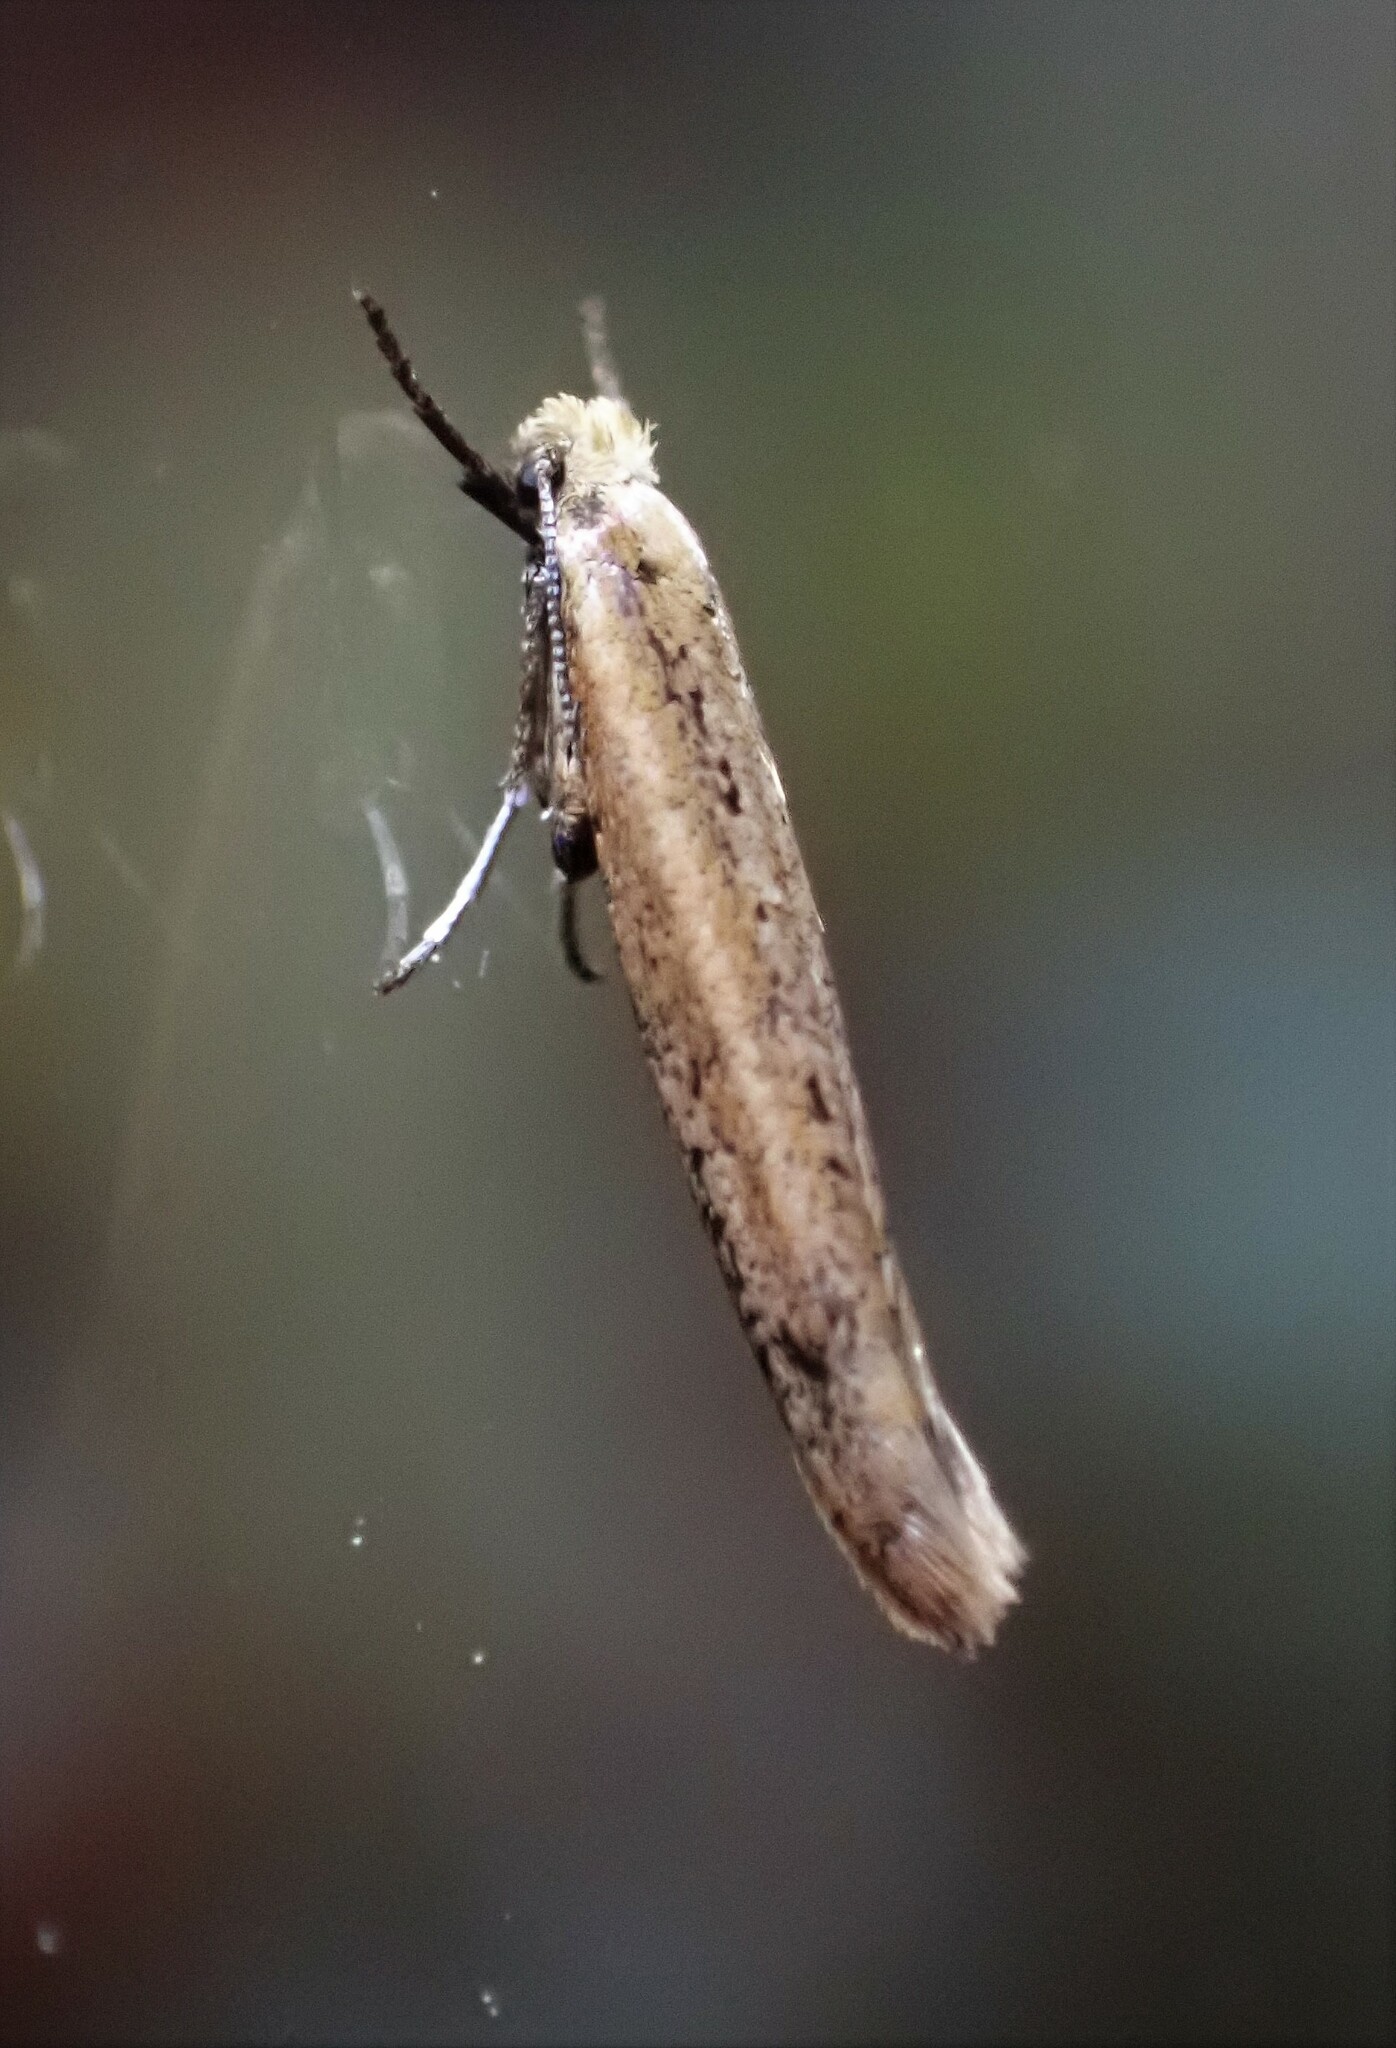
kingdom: Animalia
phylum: Arthropoda
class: Insecta
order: Lepidoptera
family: Yponomeutidae
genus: Euhyponomeutoides
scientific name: Euhyponomeutoides gracilariella
